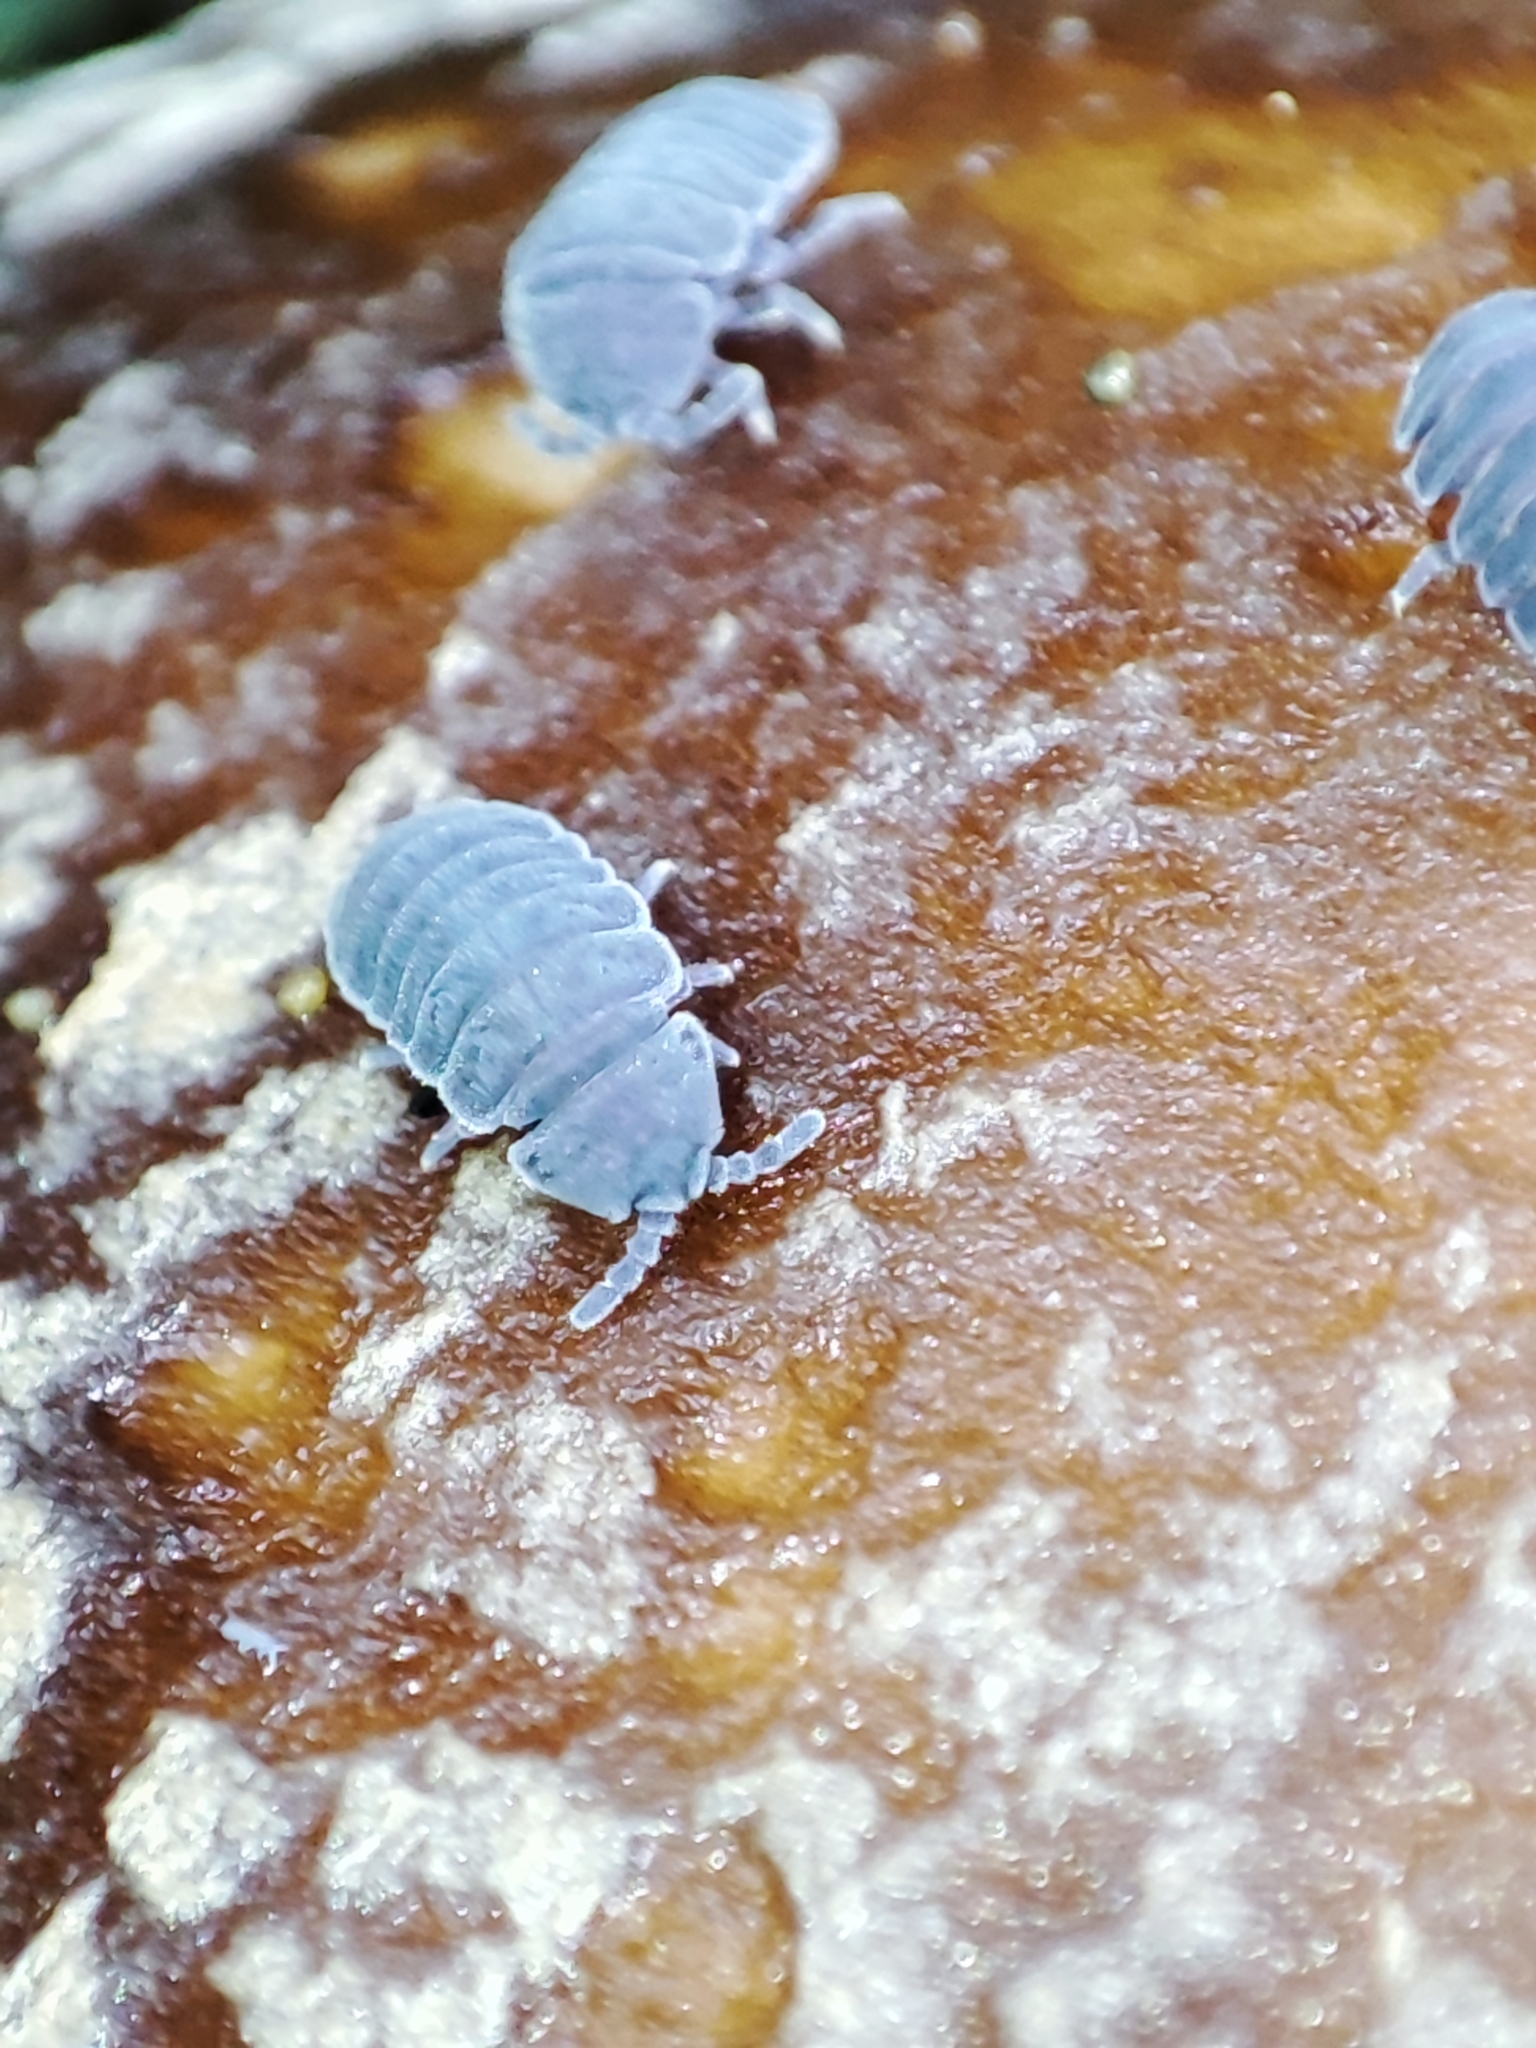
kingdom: Animalia
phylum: Arthropoda
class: Collembola
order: Poduromorpha
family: Onychiuridae
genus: Tetrodontophora
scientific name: Tetrodontophora bielanensis
